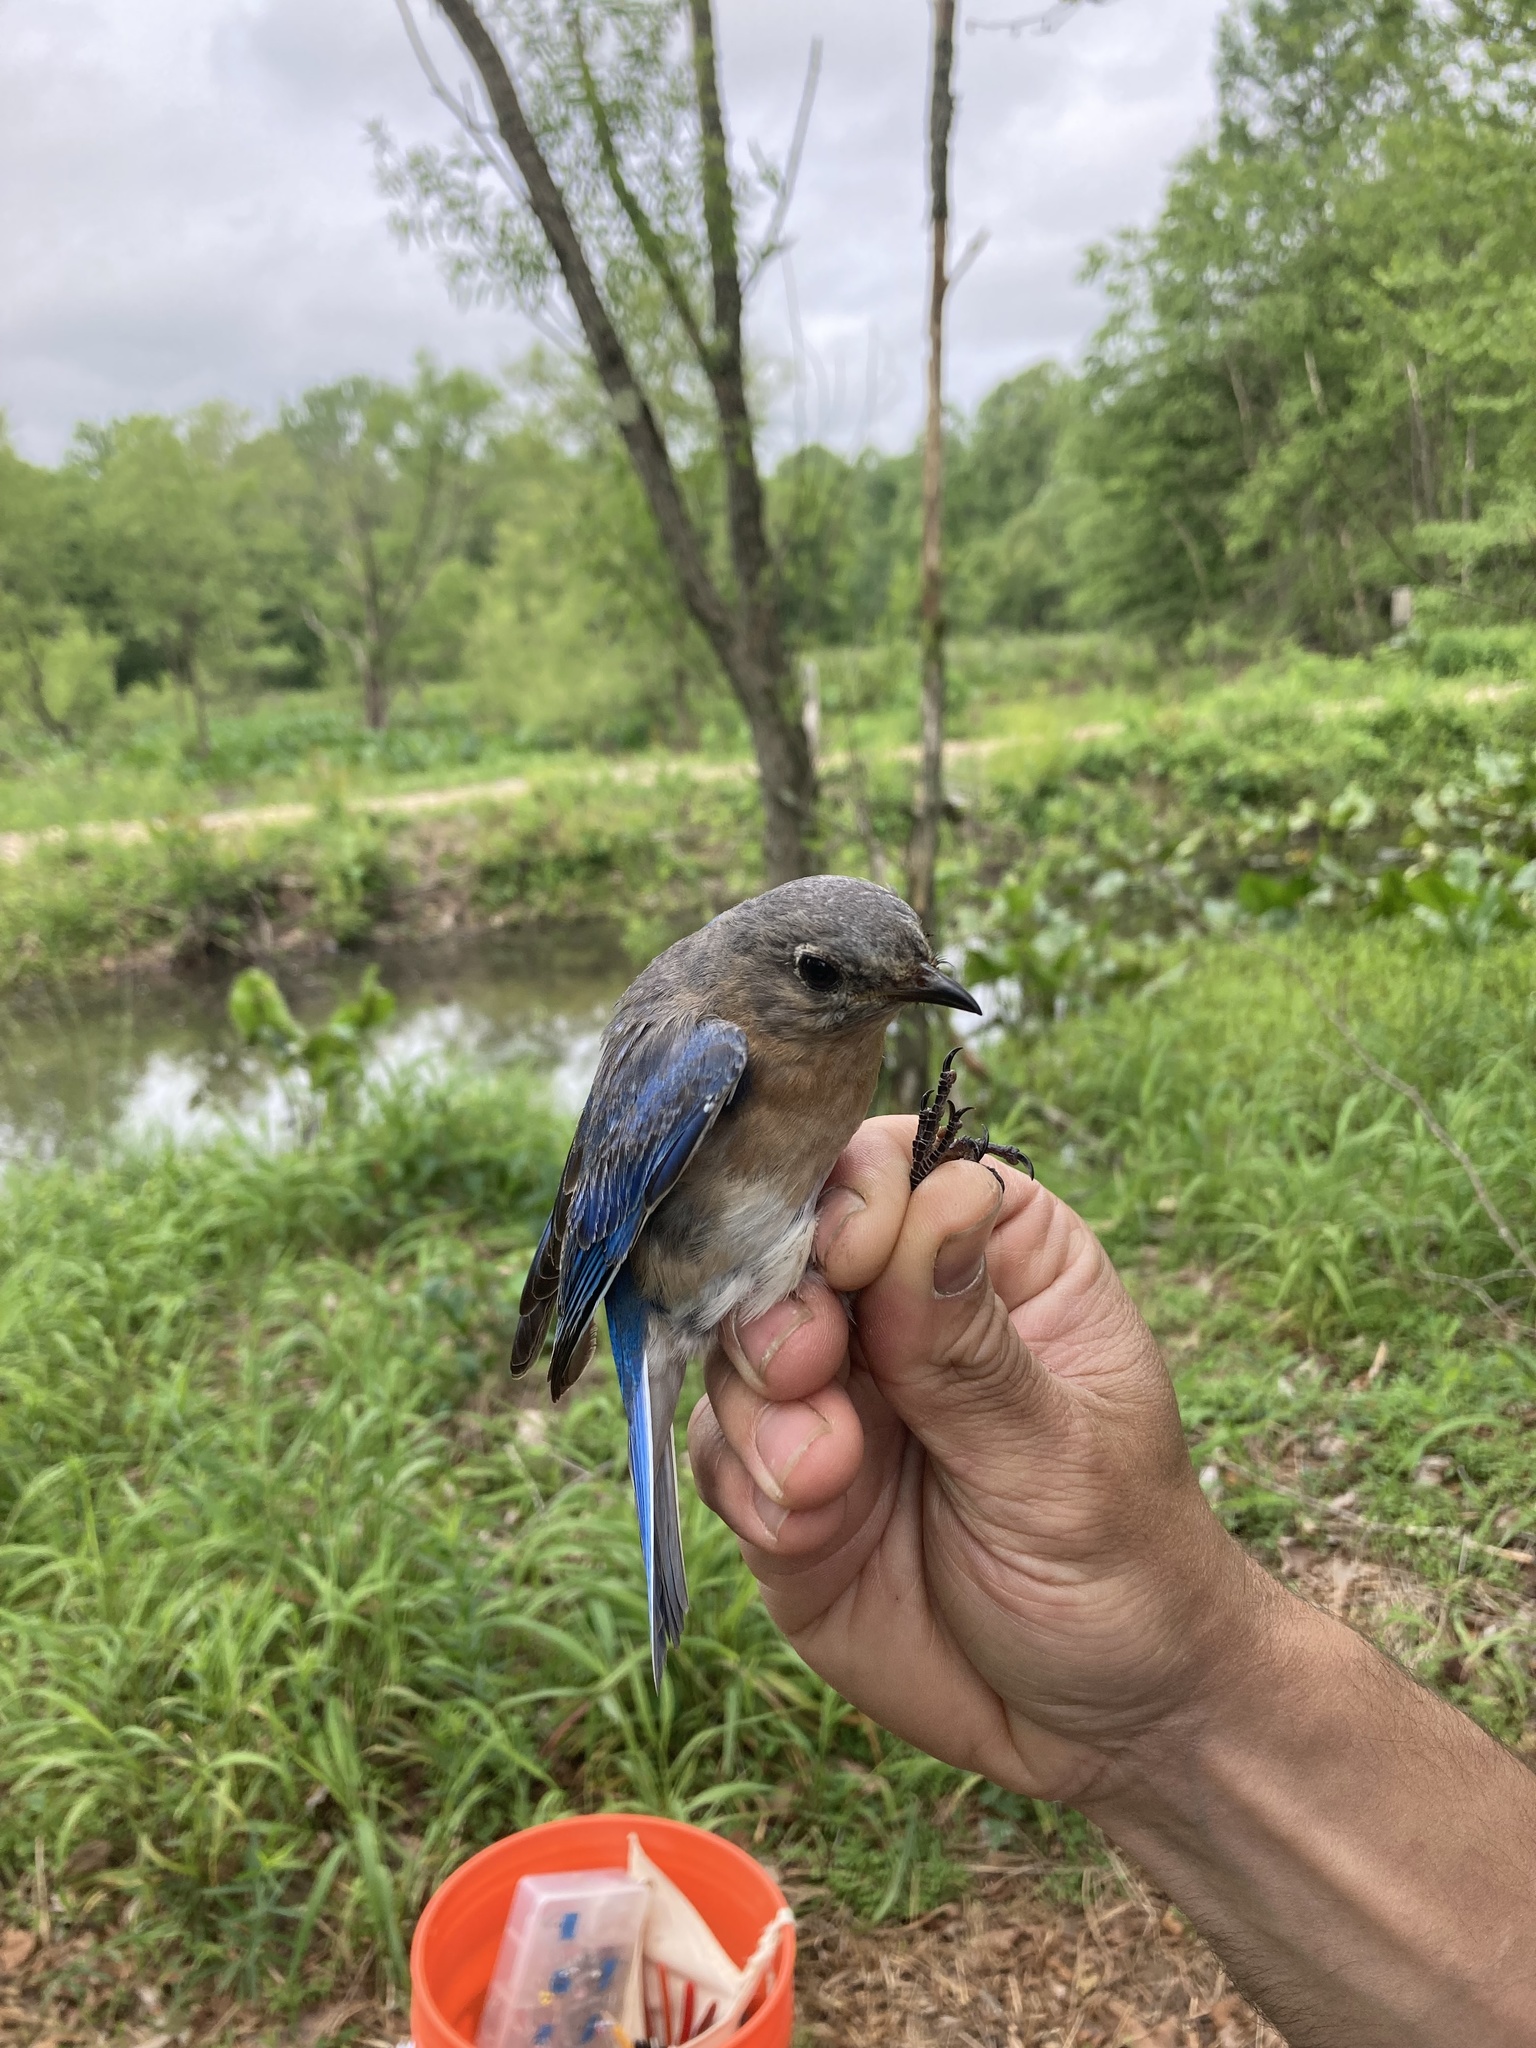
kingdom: Animalia
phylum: Chordata
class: Aves
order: Passeriformes
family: Turdidae
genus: Sialia
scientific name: Sialia sialis
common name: Eastern bluebird
